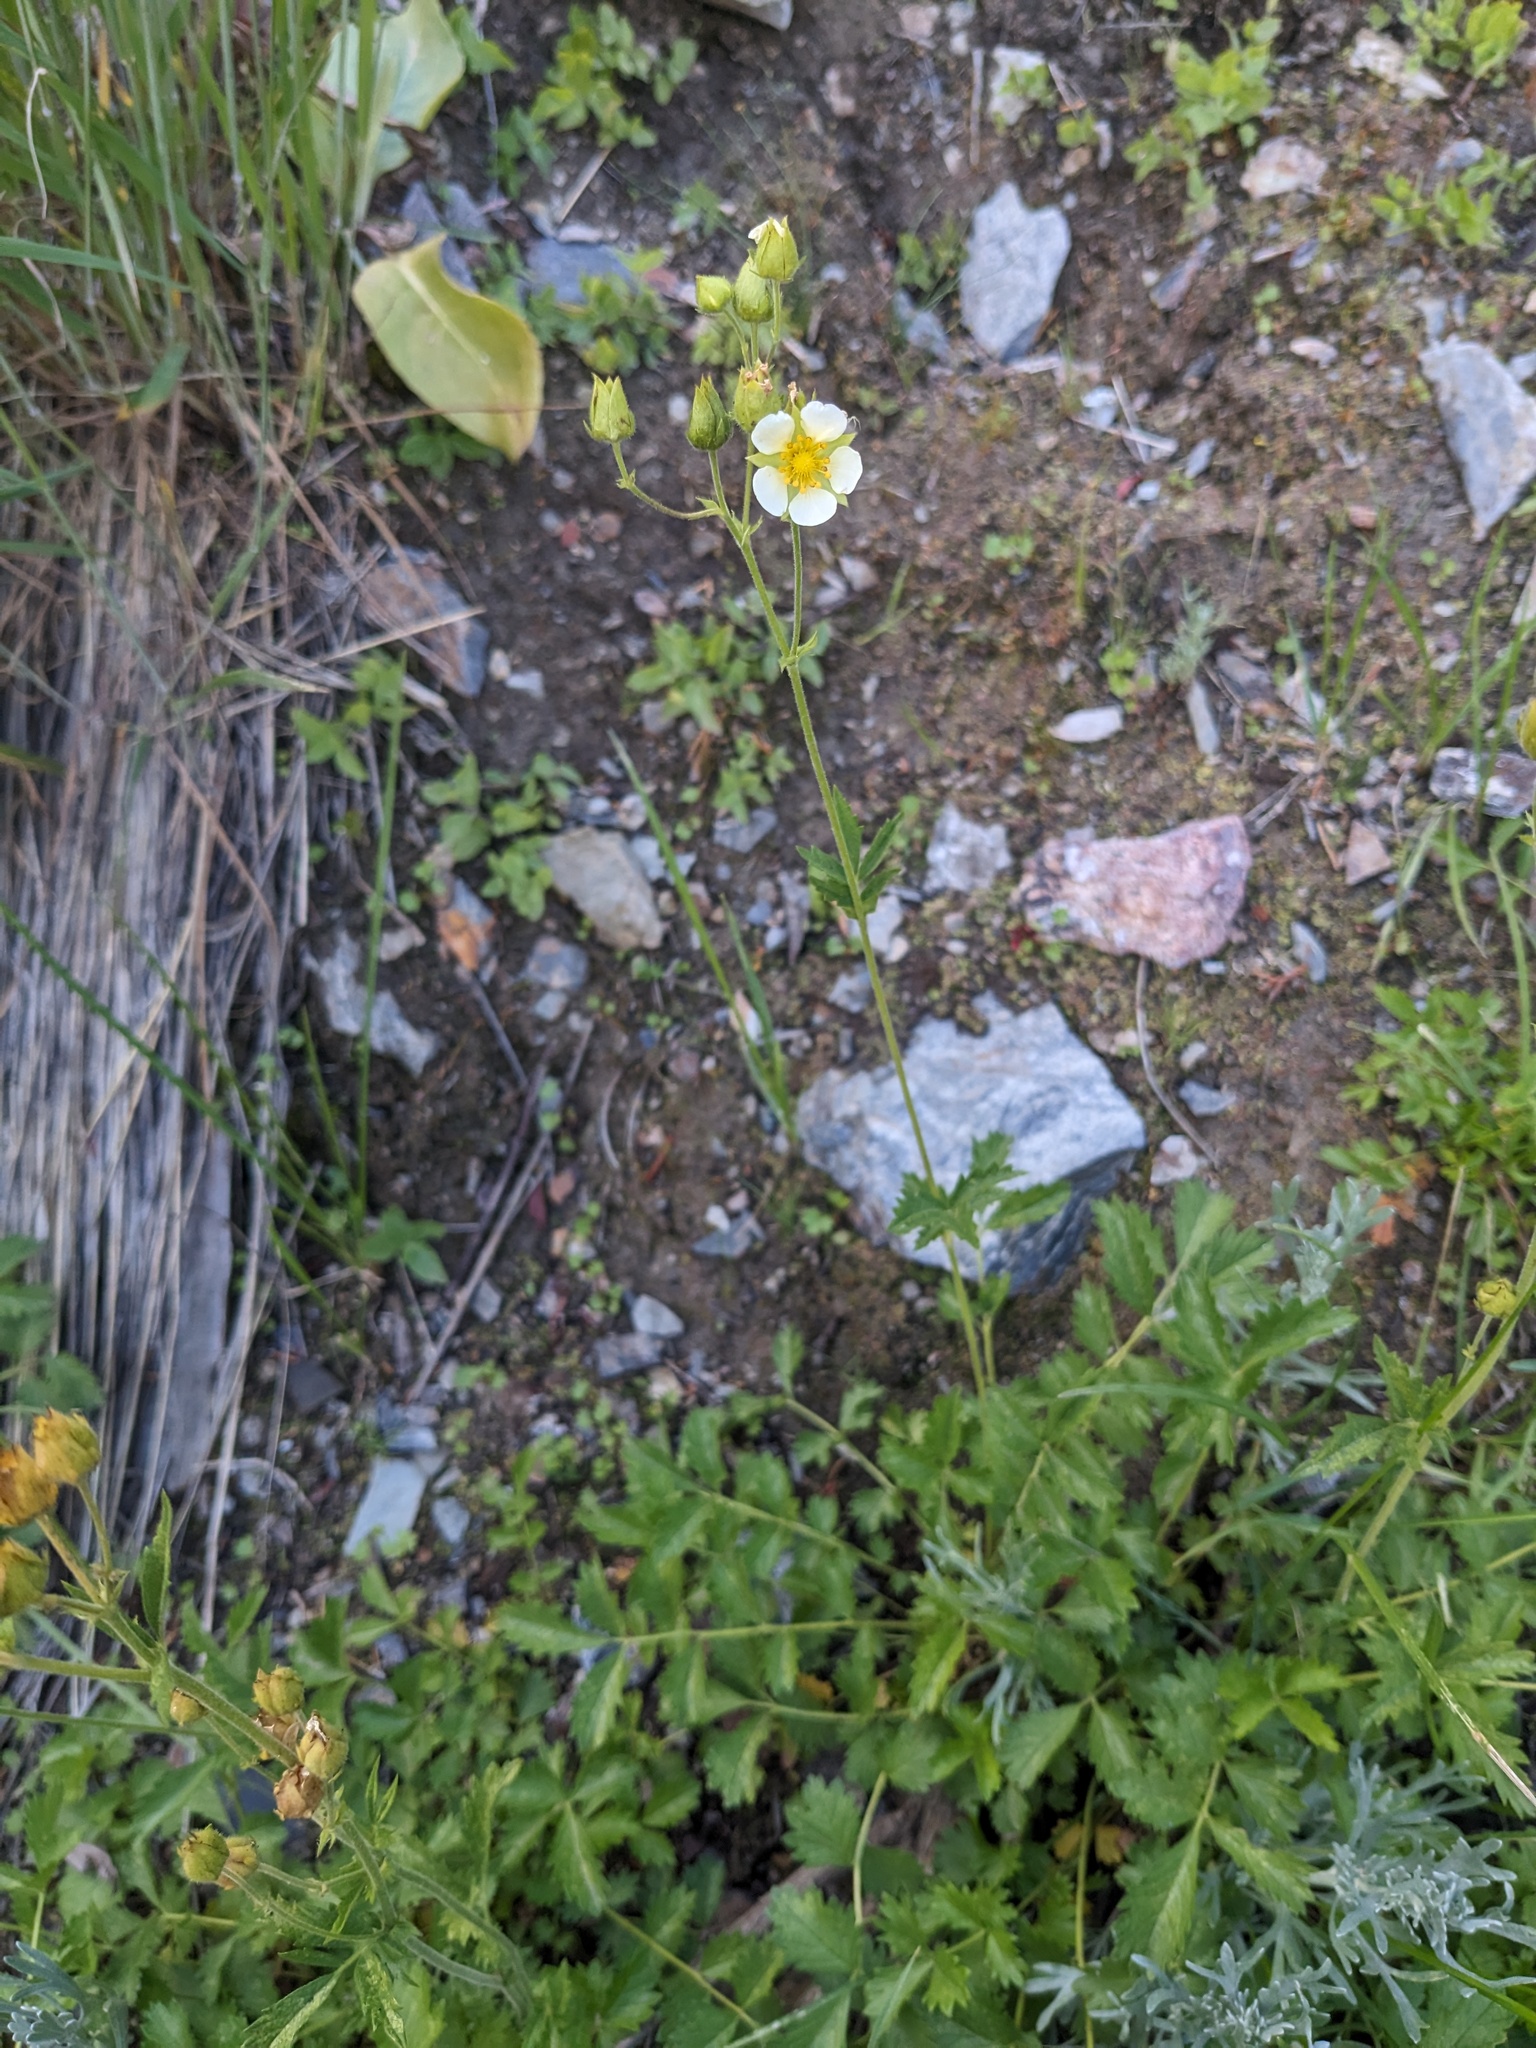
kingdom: Plantae
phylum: Tracheophyta
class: Magnoliopsida
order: Rosales
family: Rosaceae
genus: Drymocallis
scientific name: Drymocallis lactea
